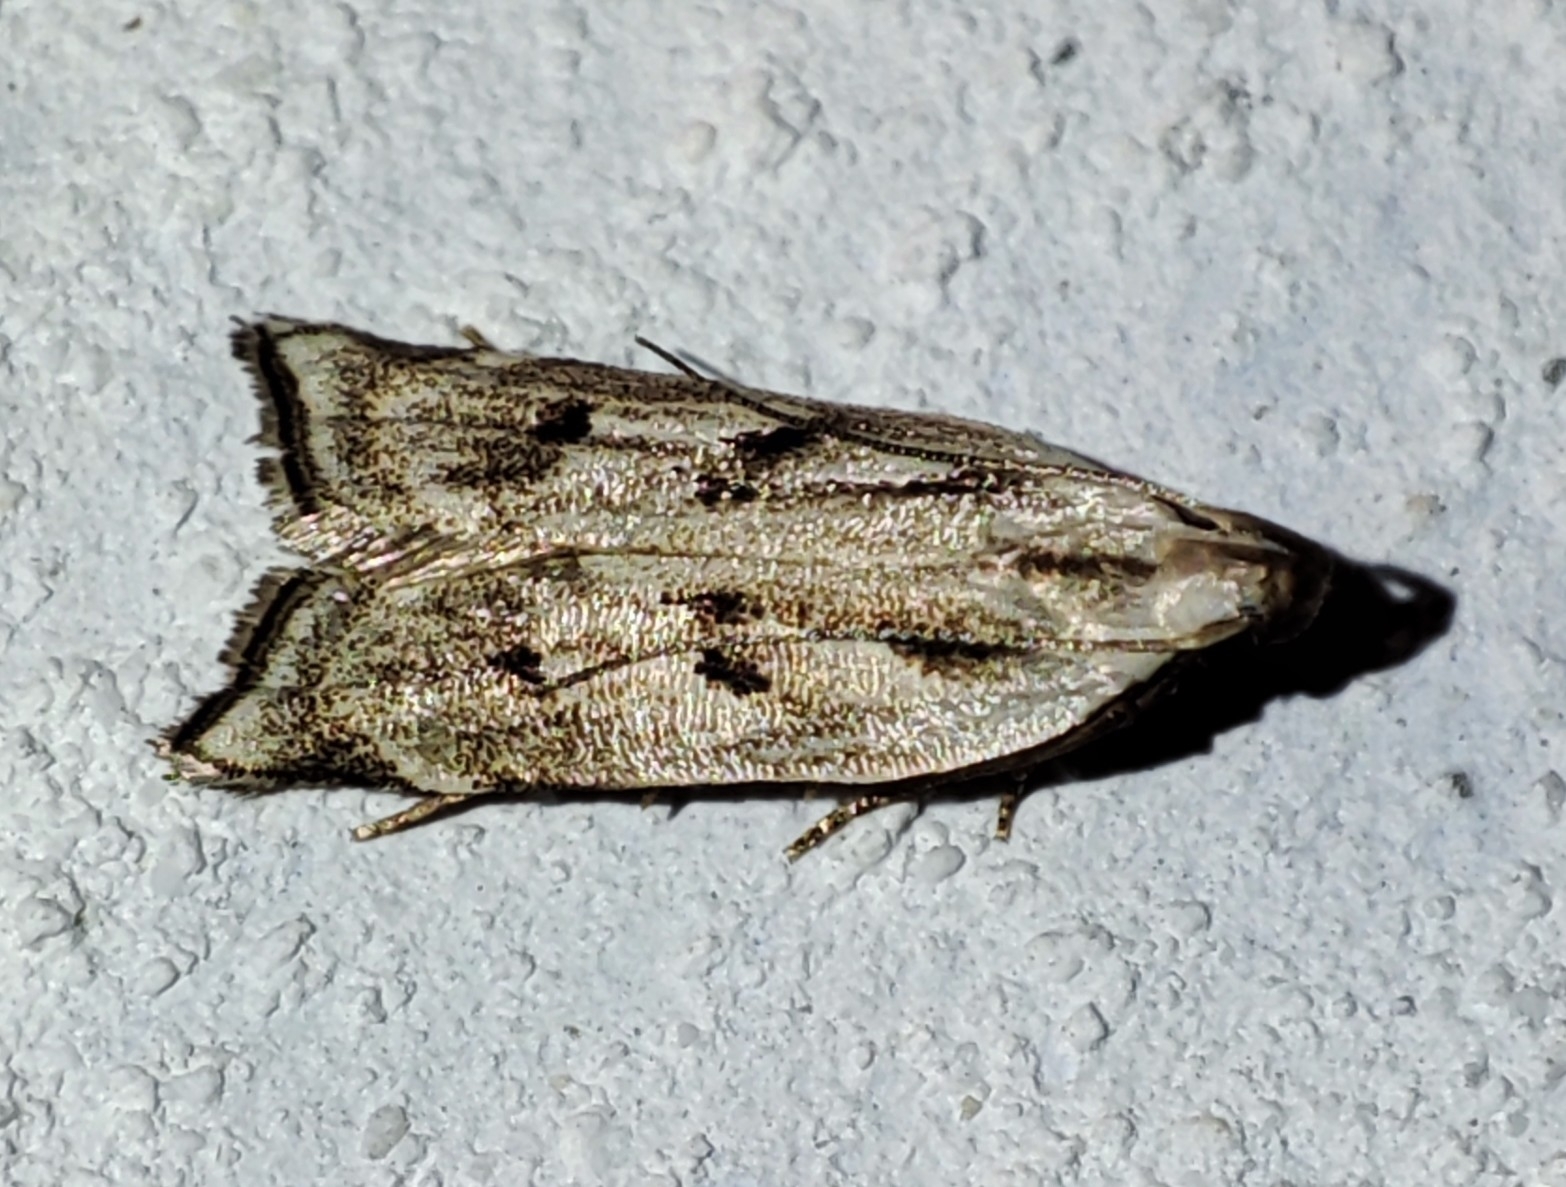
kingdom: Animalia
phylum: Arthropoda
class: Insecta
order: Lepidoptera
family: Gelechiidae
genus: Dichomeris
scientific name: Dichomeris rasilella
